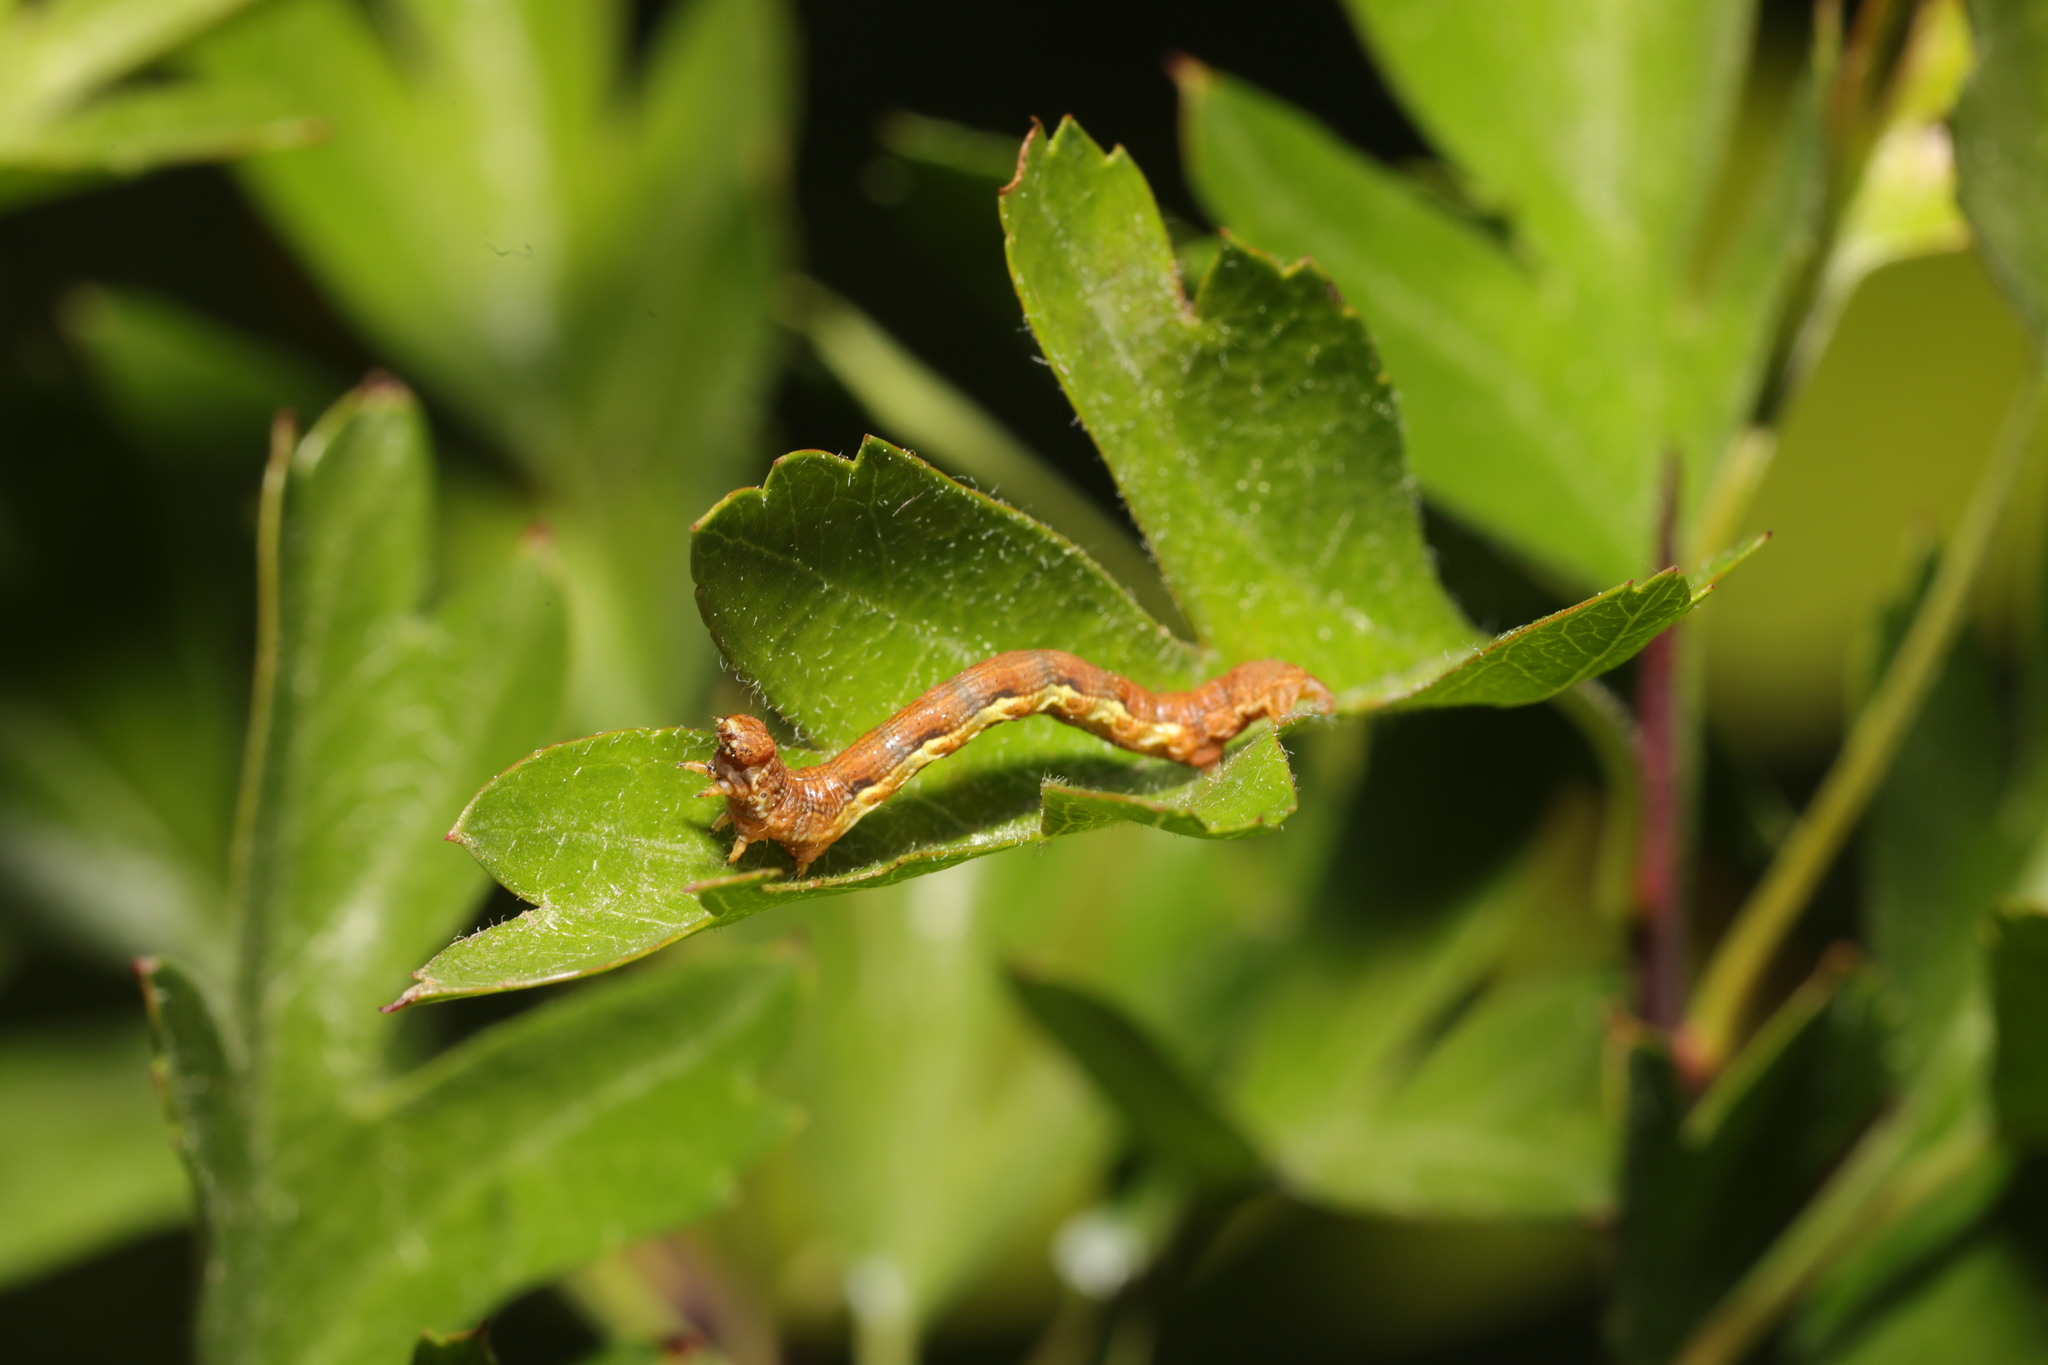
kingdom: Animalia
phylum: Arthropoda
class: Insecta
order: Lepidoptera
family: Geometridae
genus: Erannis
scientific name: Erannis defoliaria
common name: Mottled umber
